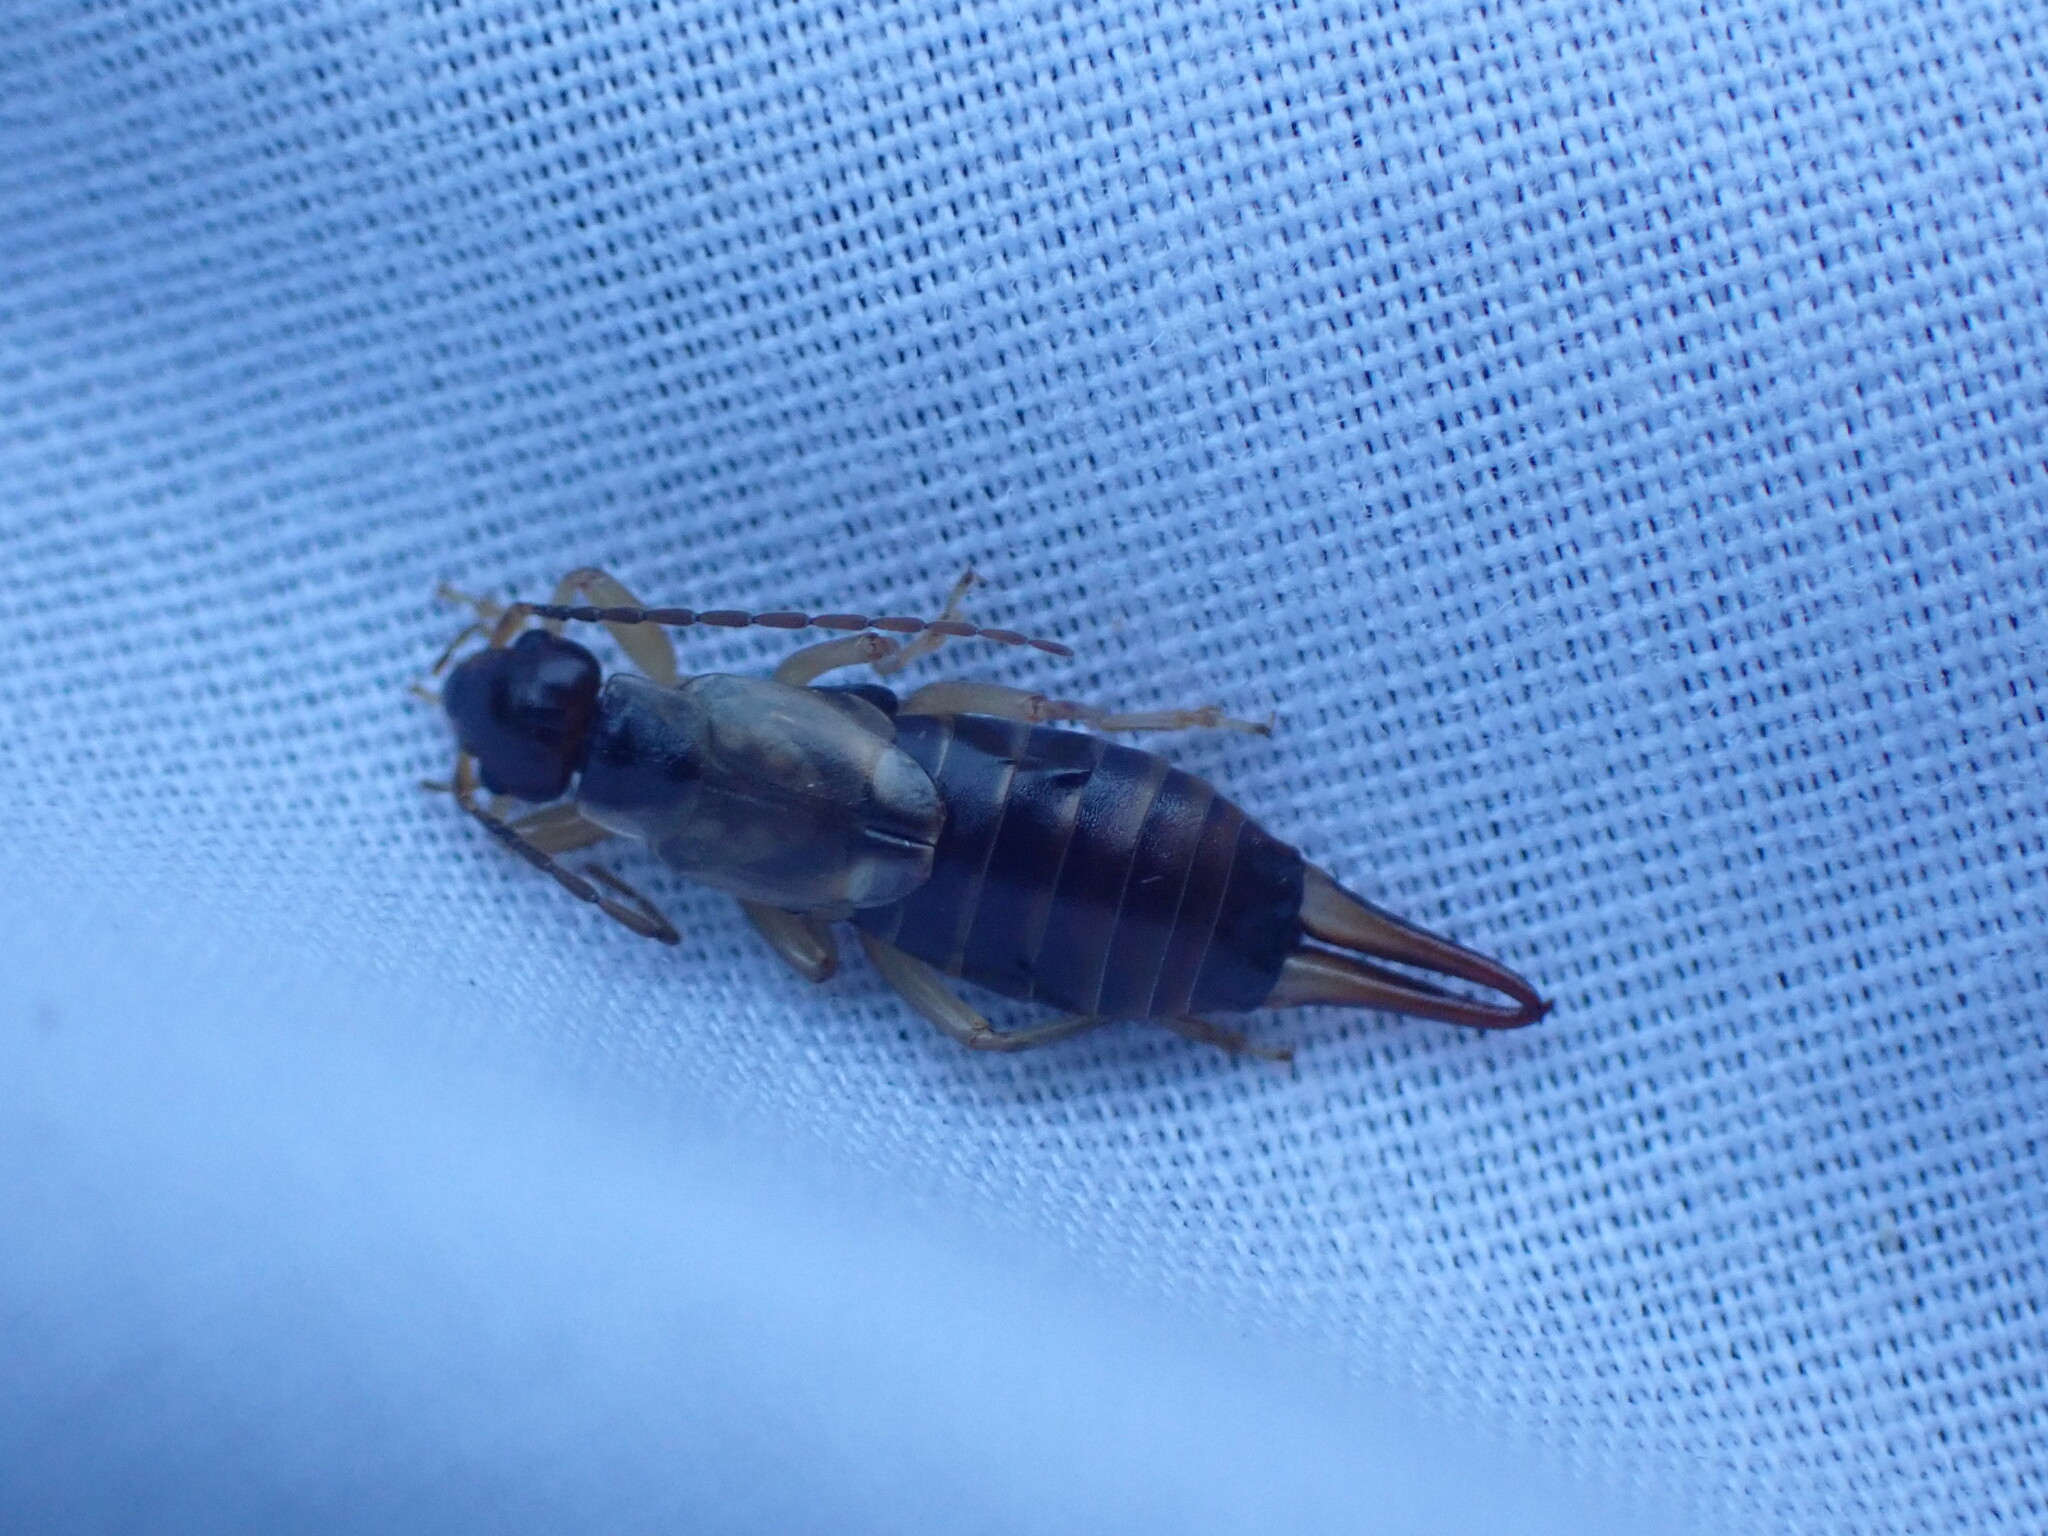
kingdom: Animalia
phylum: Arthropoda
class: Insecta
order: Dermaptera
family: Forficulidae
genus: Forficula
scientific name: Forficula
